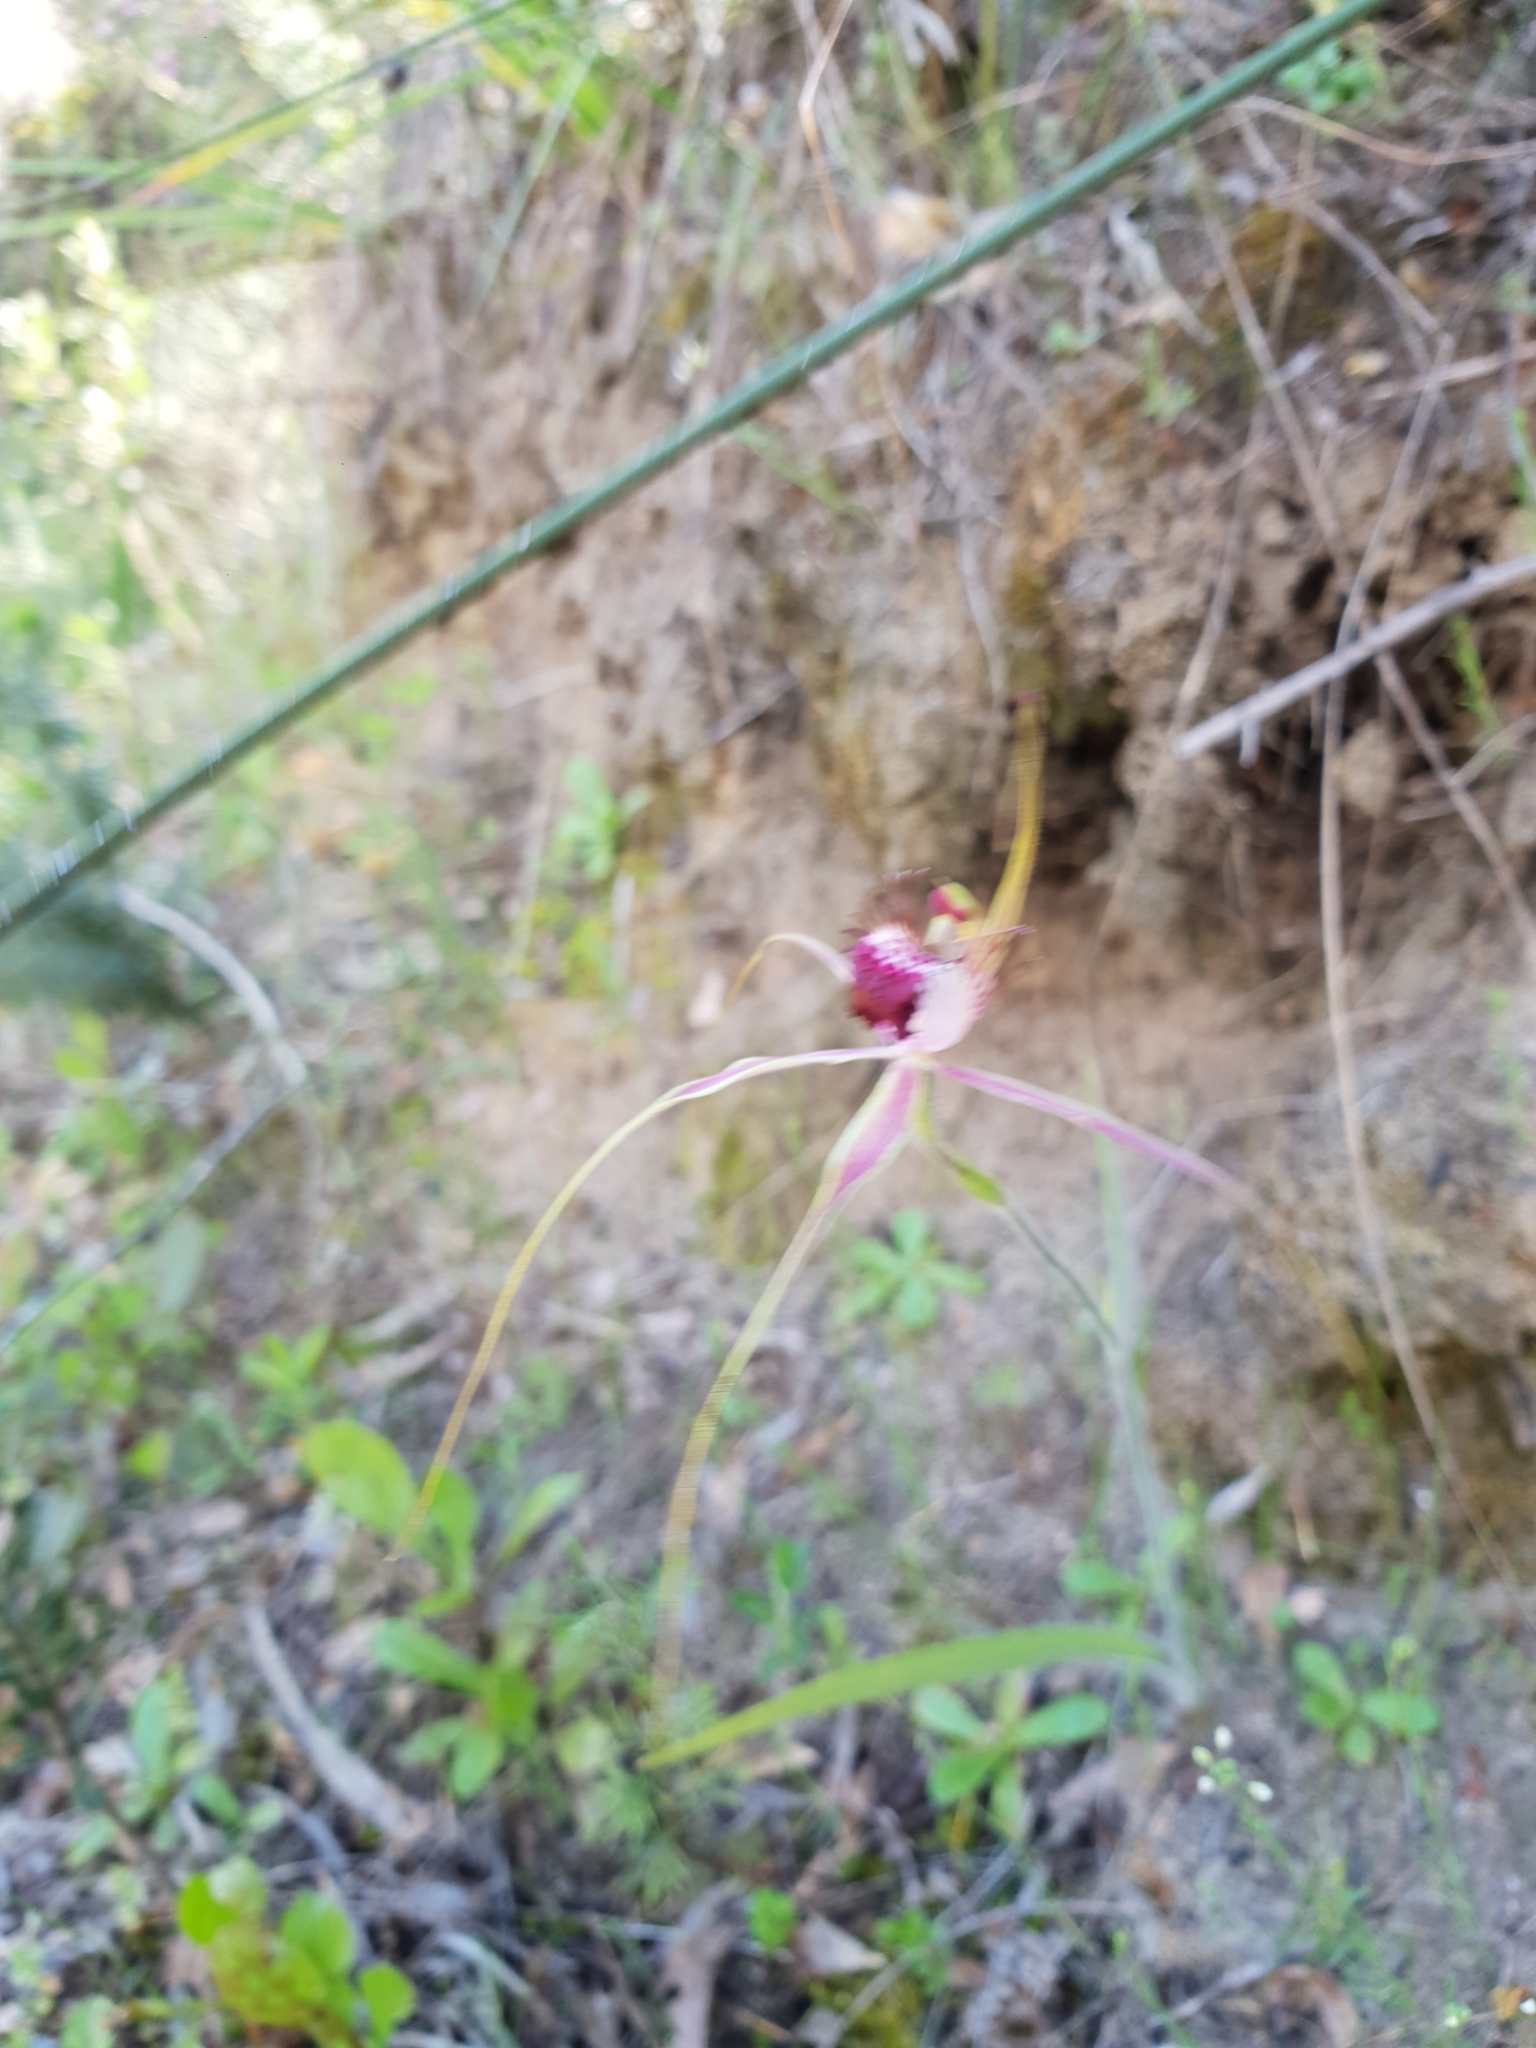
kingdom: Plantae
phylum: Tracheophyta
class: Liliopsida
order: Asparagales
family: Orchidaceae
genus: Caladenia
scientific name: Caladenia arenicola
